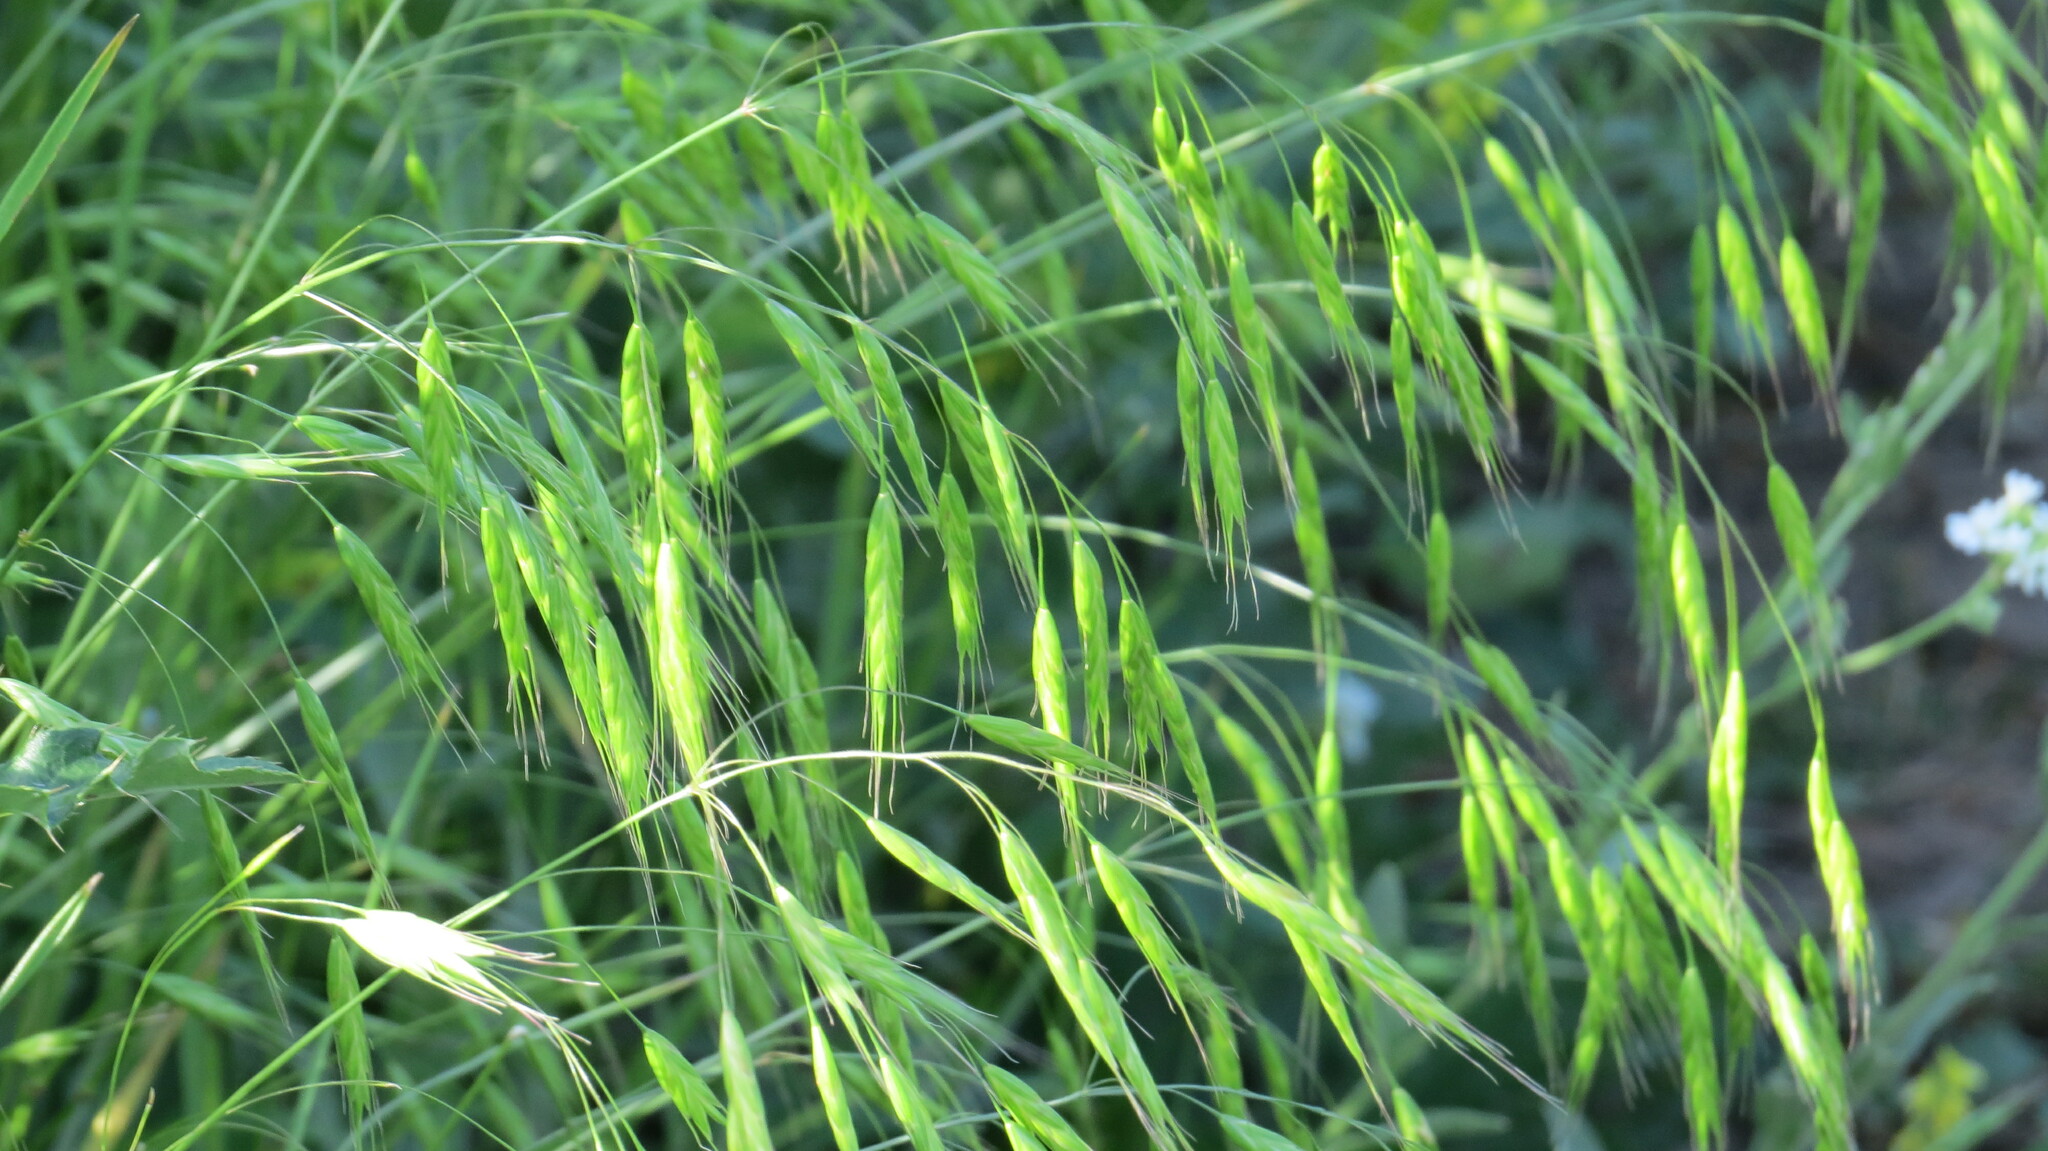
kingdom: Plantae
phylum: Tracheophyta
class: Liliopsida
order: Poales
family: Poaceae
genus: Bromus
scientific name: Bromus japonicus
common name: Japanese brome
